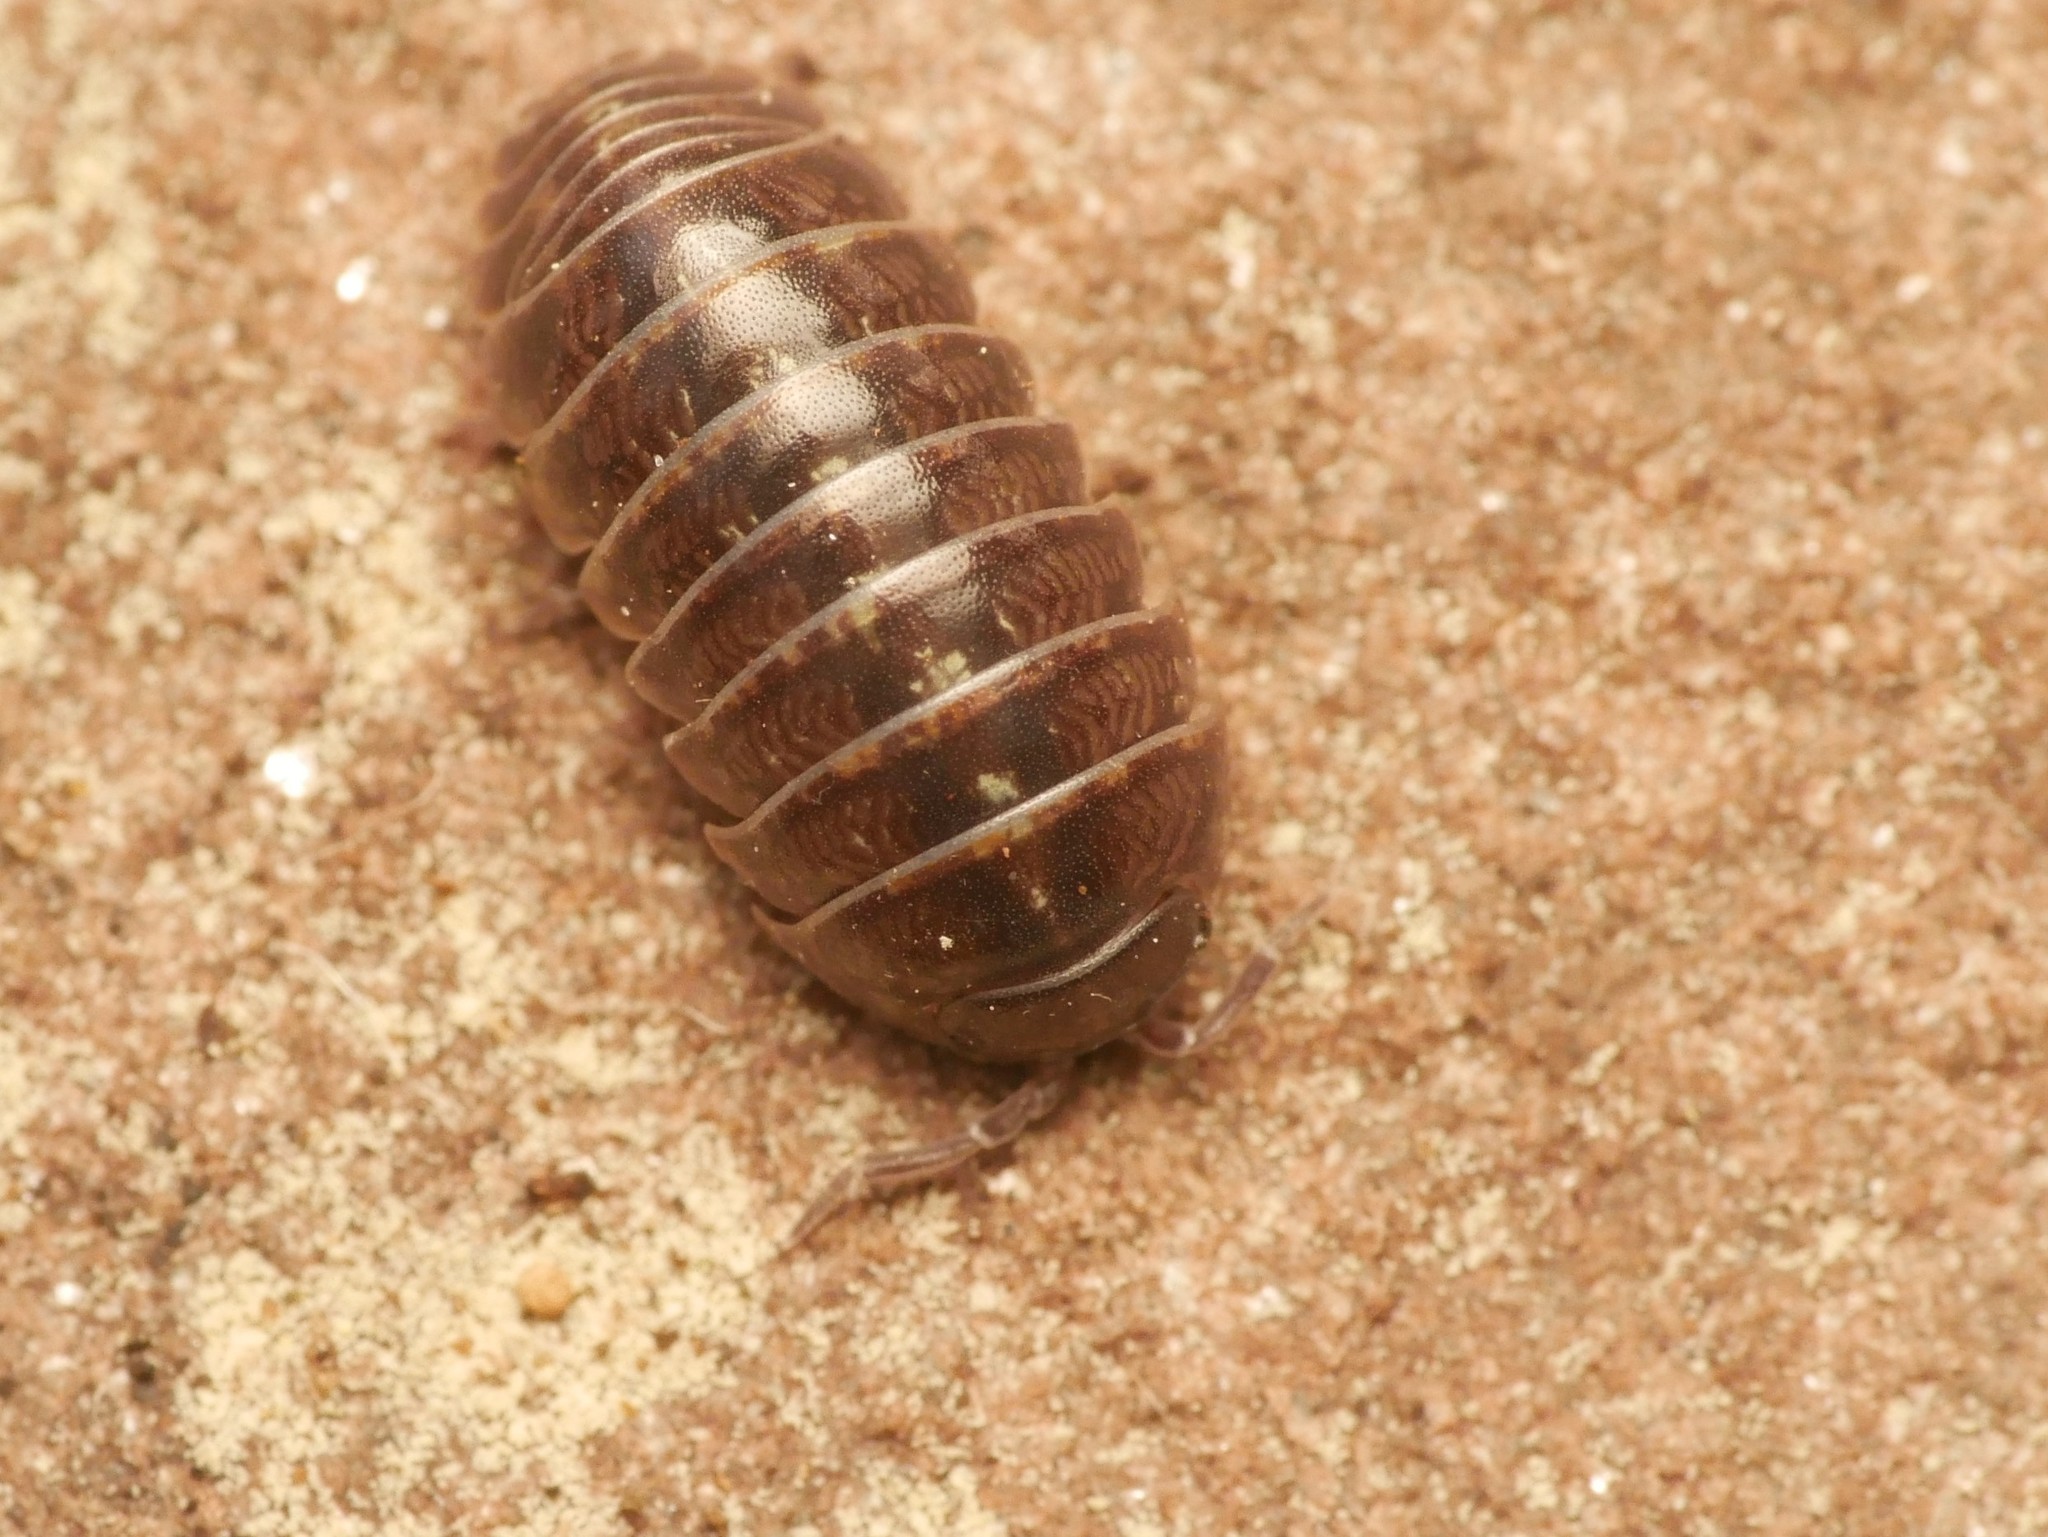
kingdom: Animalia
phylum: Arthropoda
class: Malacostraca
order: Isopoda
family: Armadillidiidae
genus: Armadillidium
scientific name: Armadillidium vulgare
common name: Common pill woodlouse
